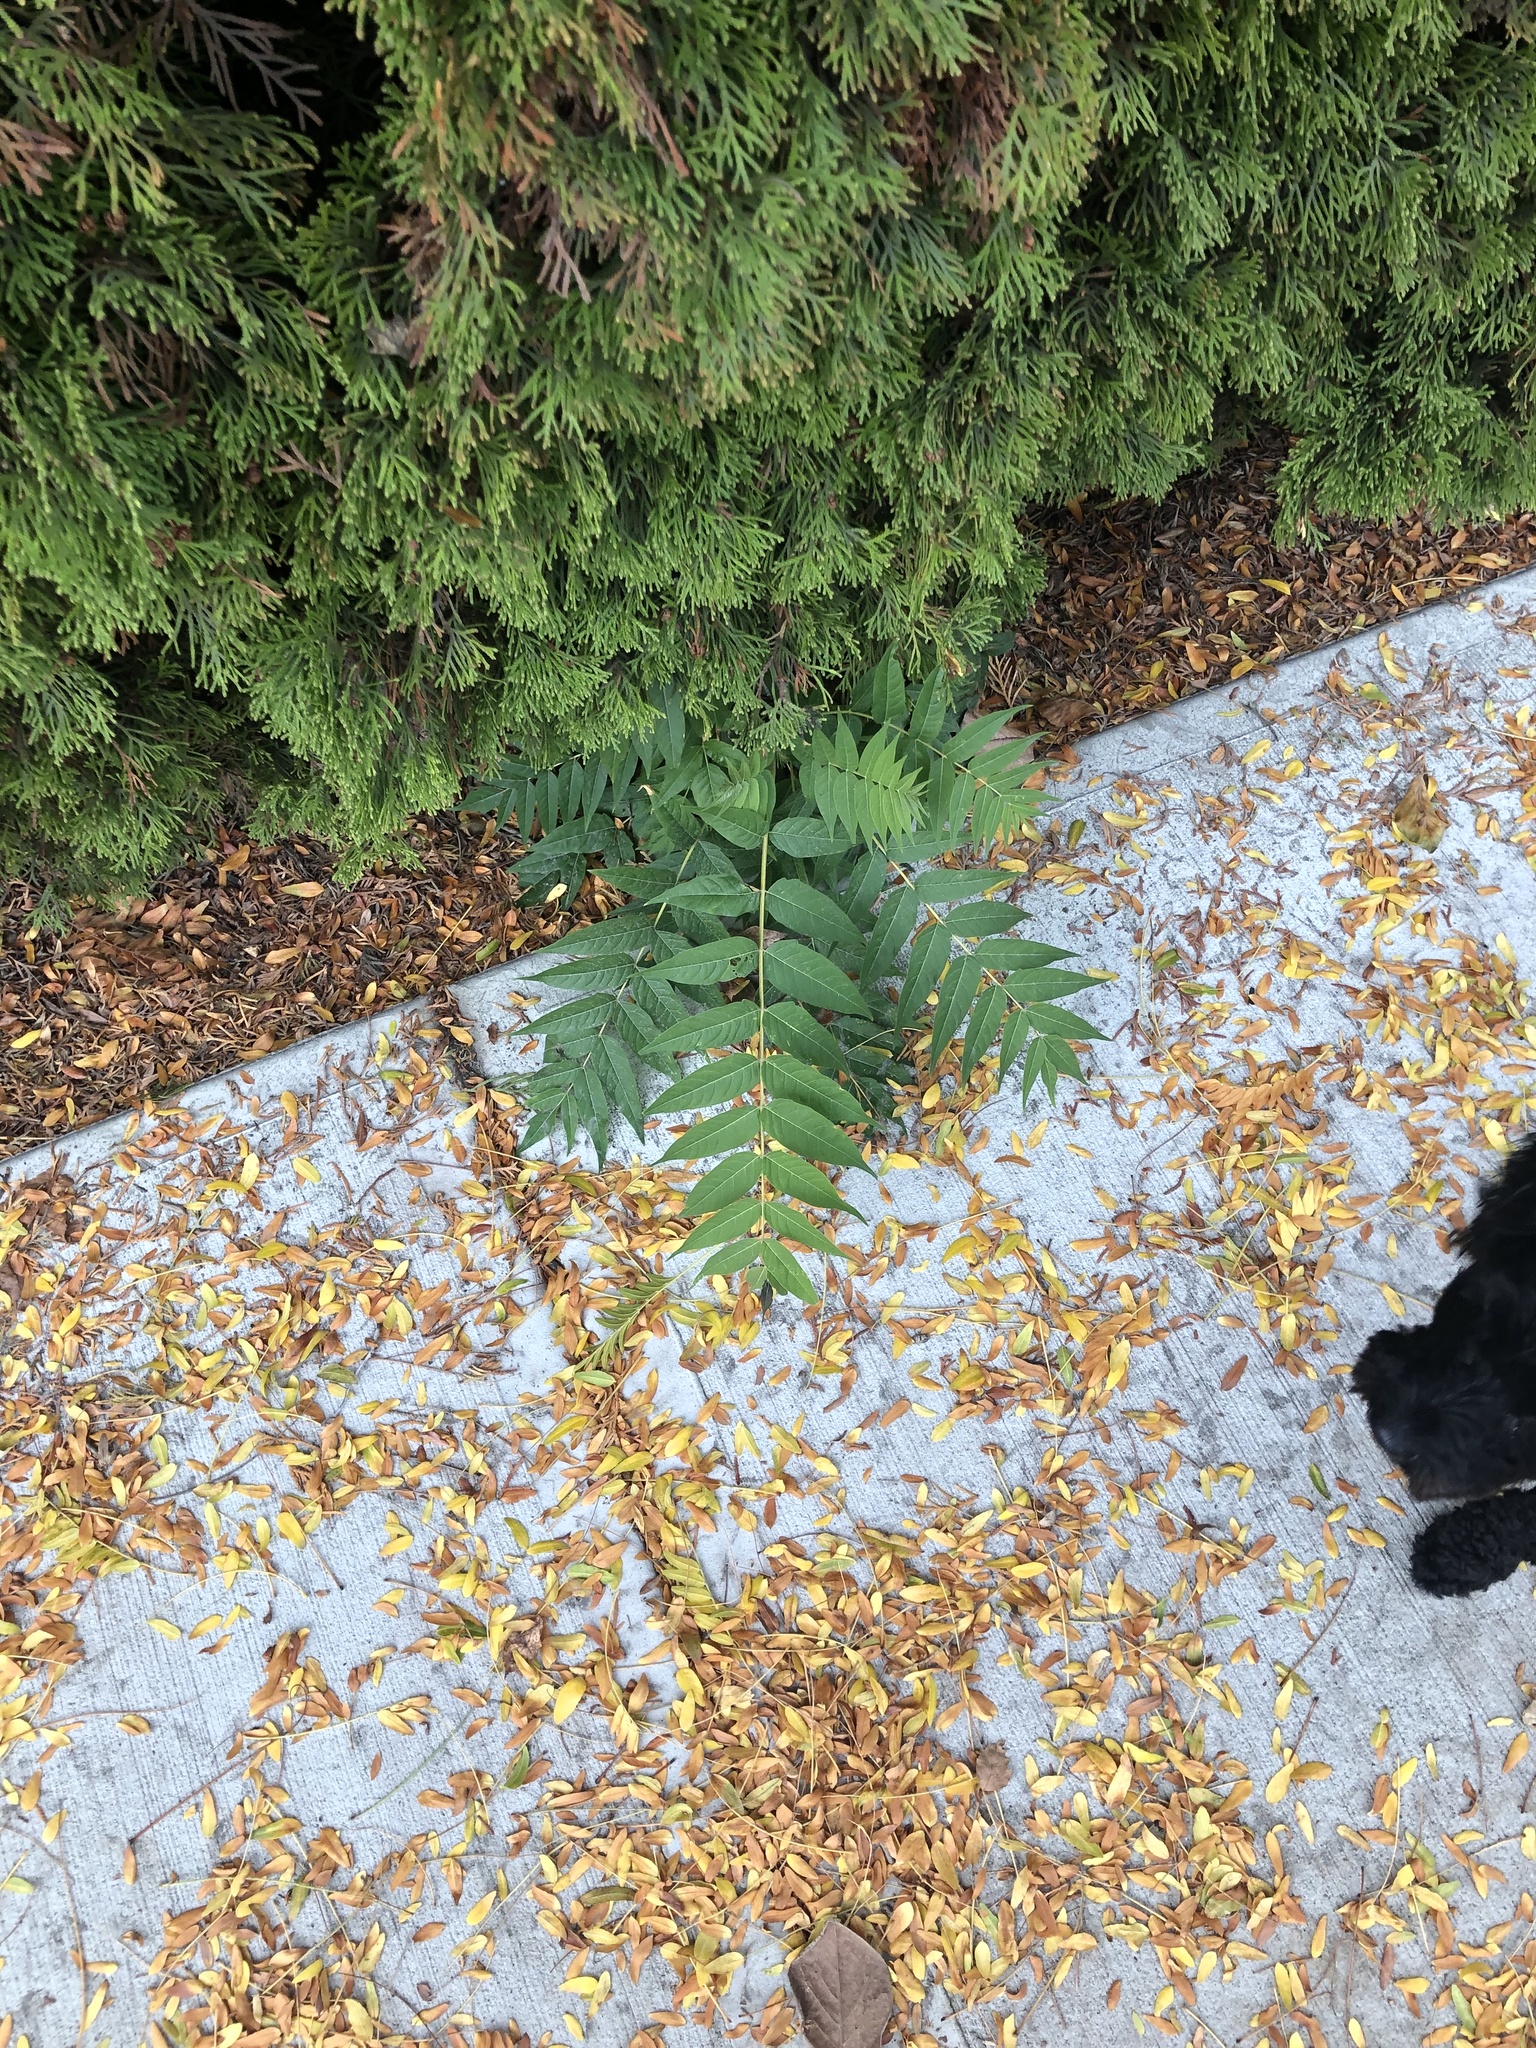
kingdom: Plantae
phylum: Tracheophyta
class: Magnoliopsida
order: Sapindales
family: Simaroubaceae
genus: Ailanthus
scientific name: Ailanthus altissima
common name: Tree-of-heaven
